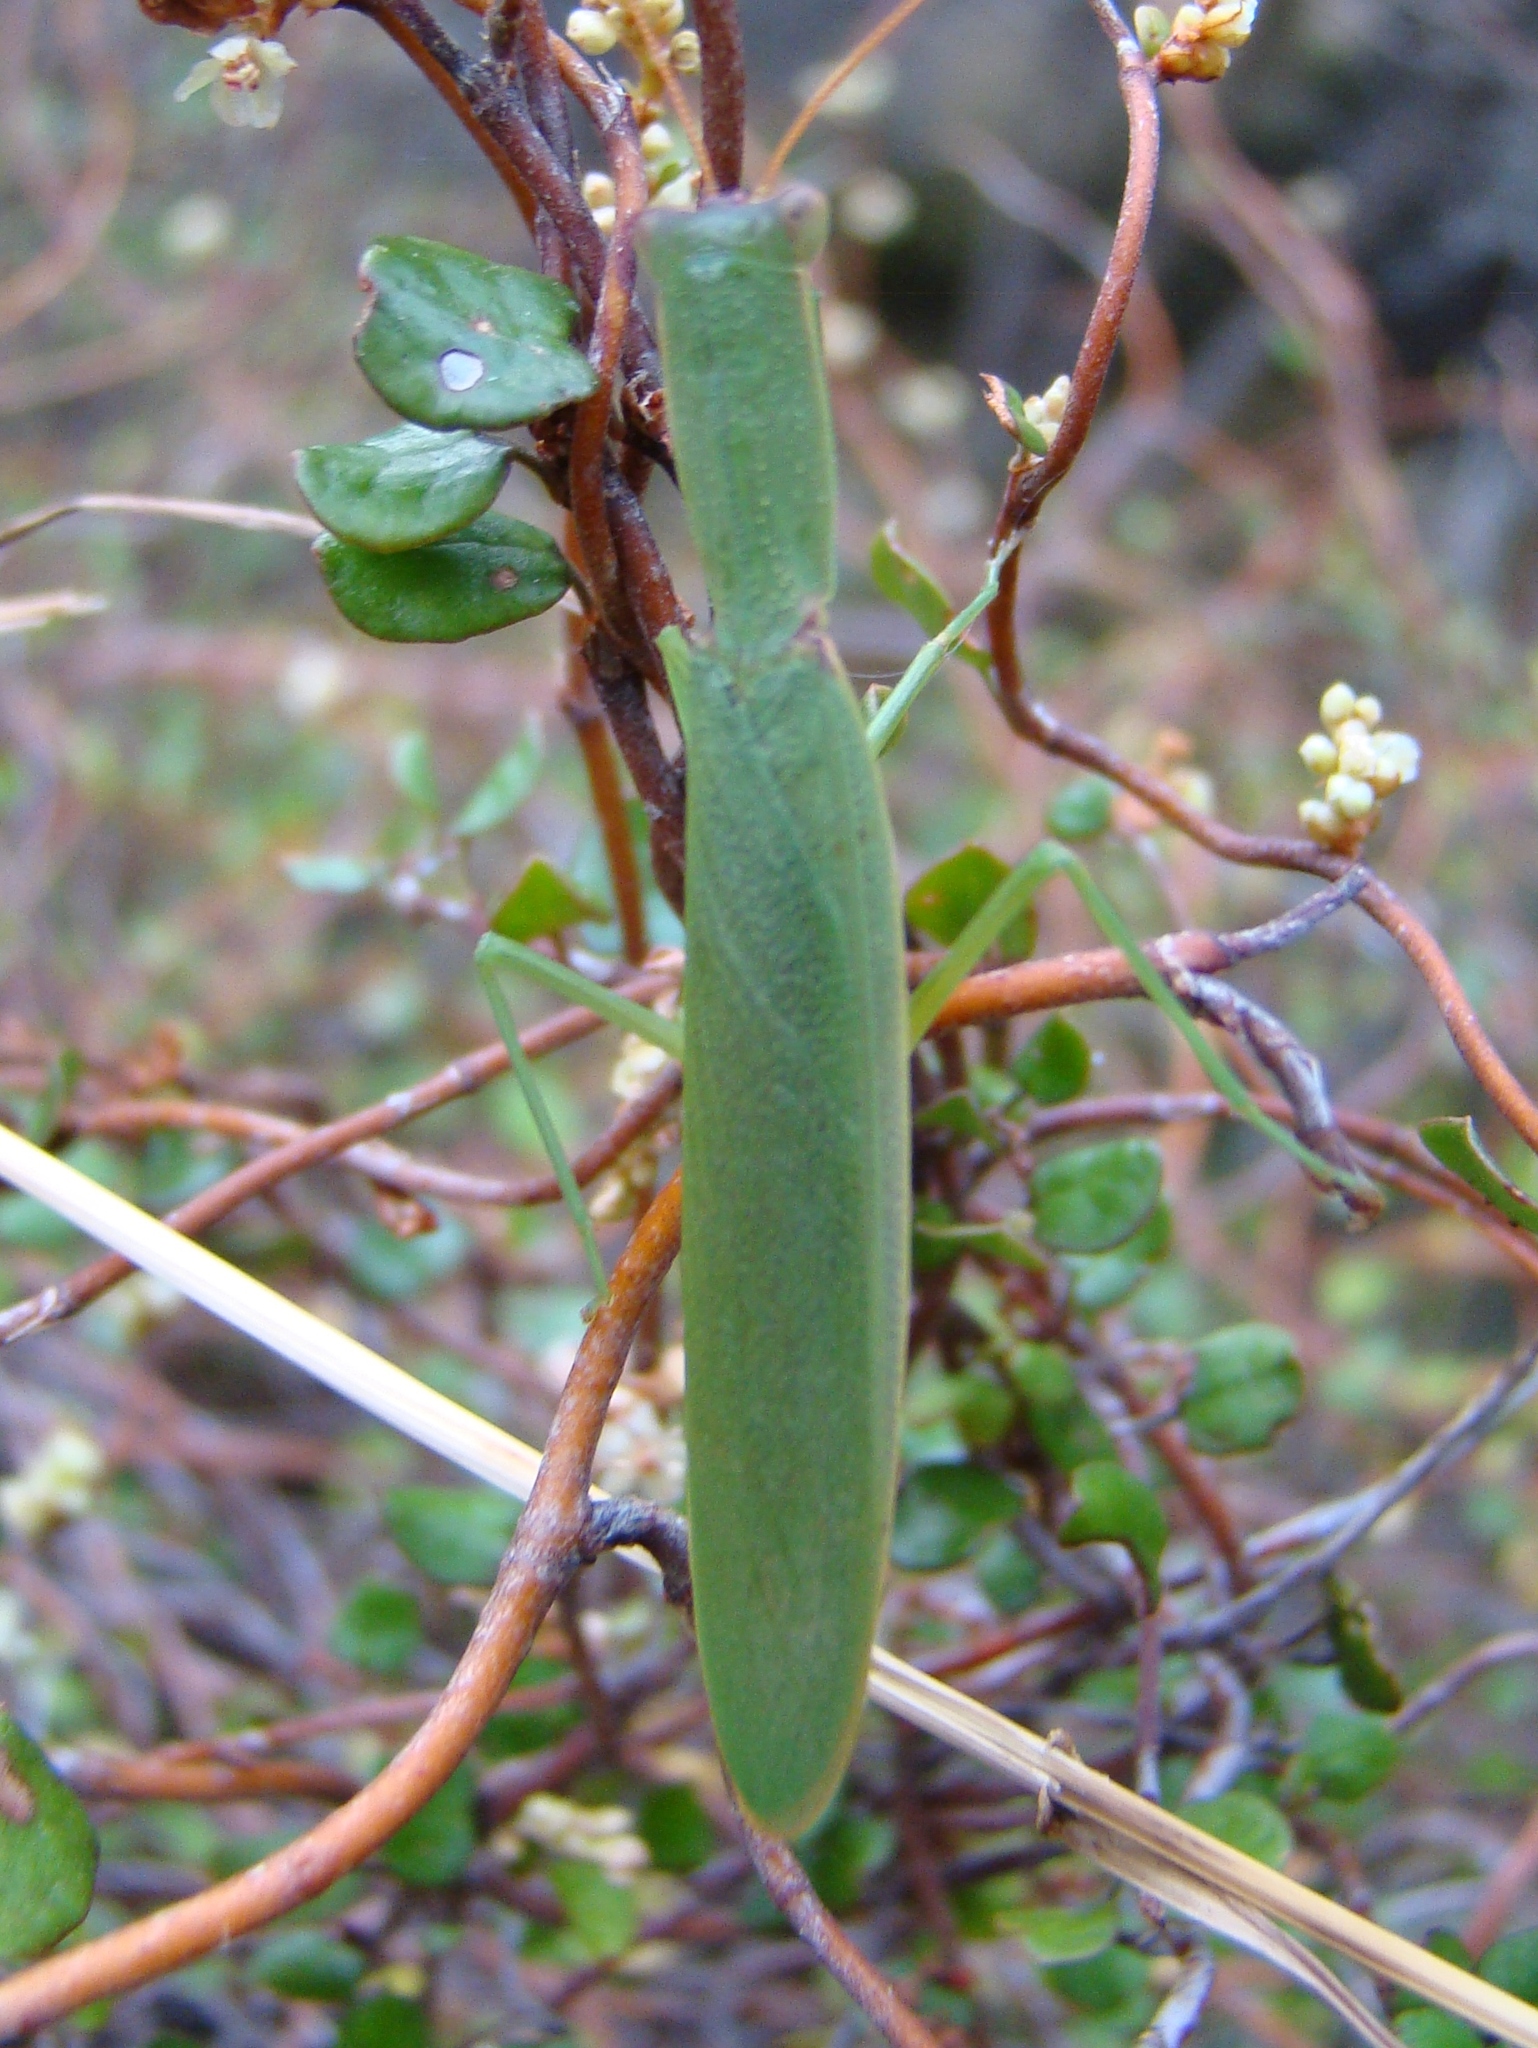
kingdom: Animalia
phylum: Arthropoda
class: Insecta
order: Mantodea
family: Mantidae
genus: Orthodera
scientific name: Orthodera novaezealandiae
